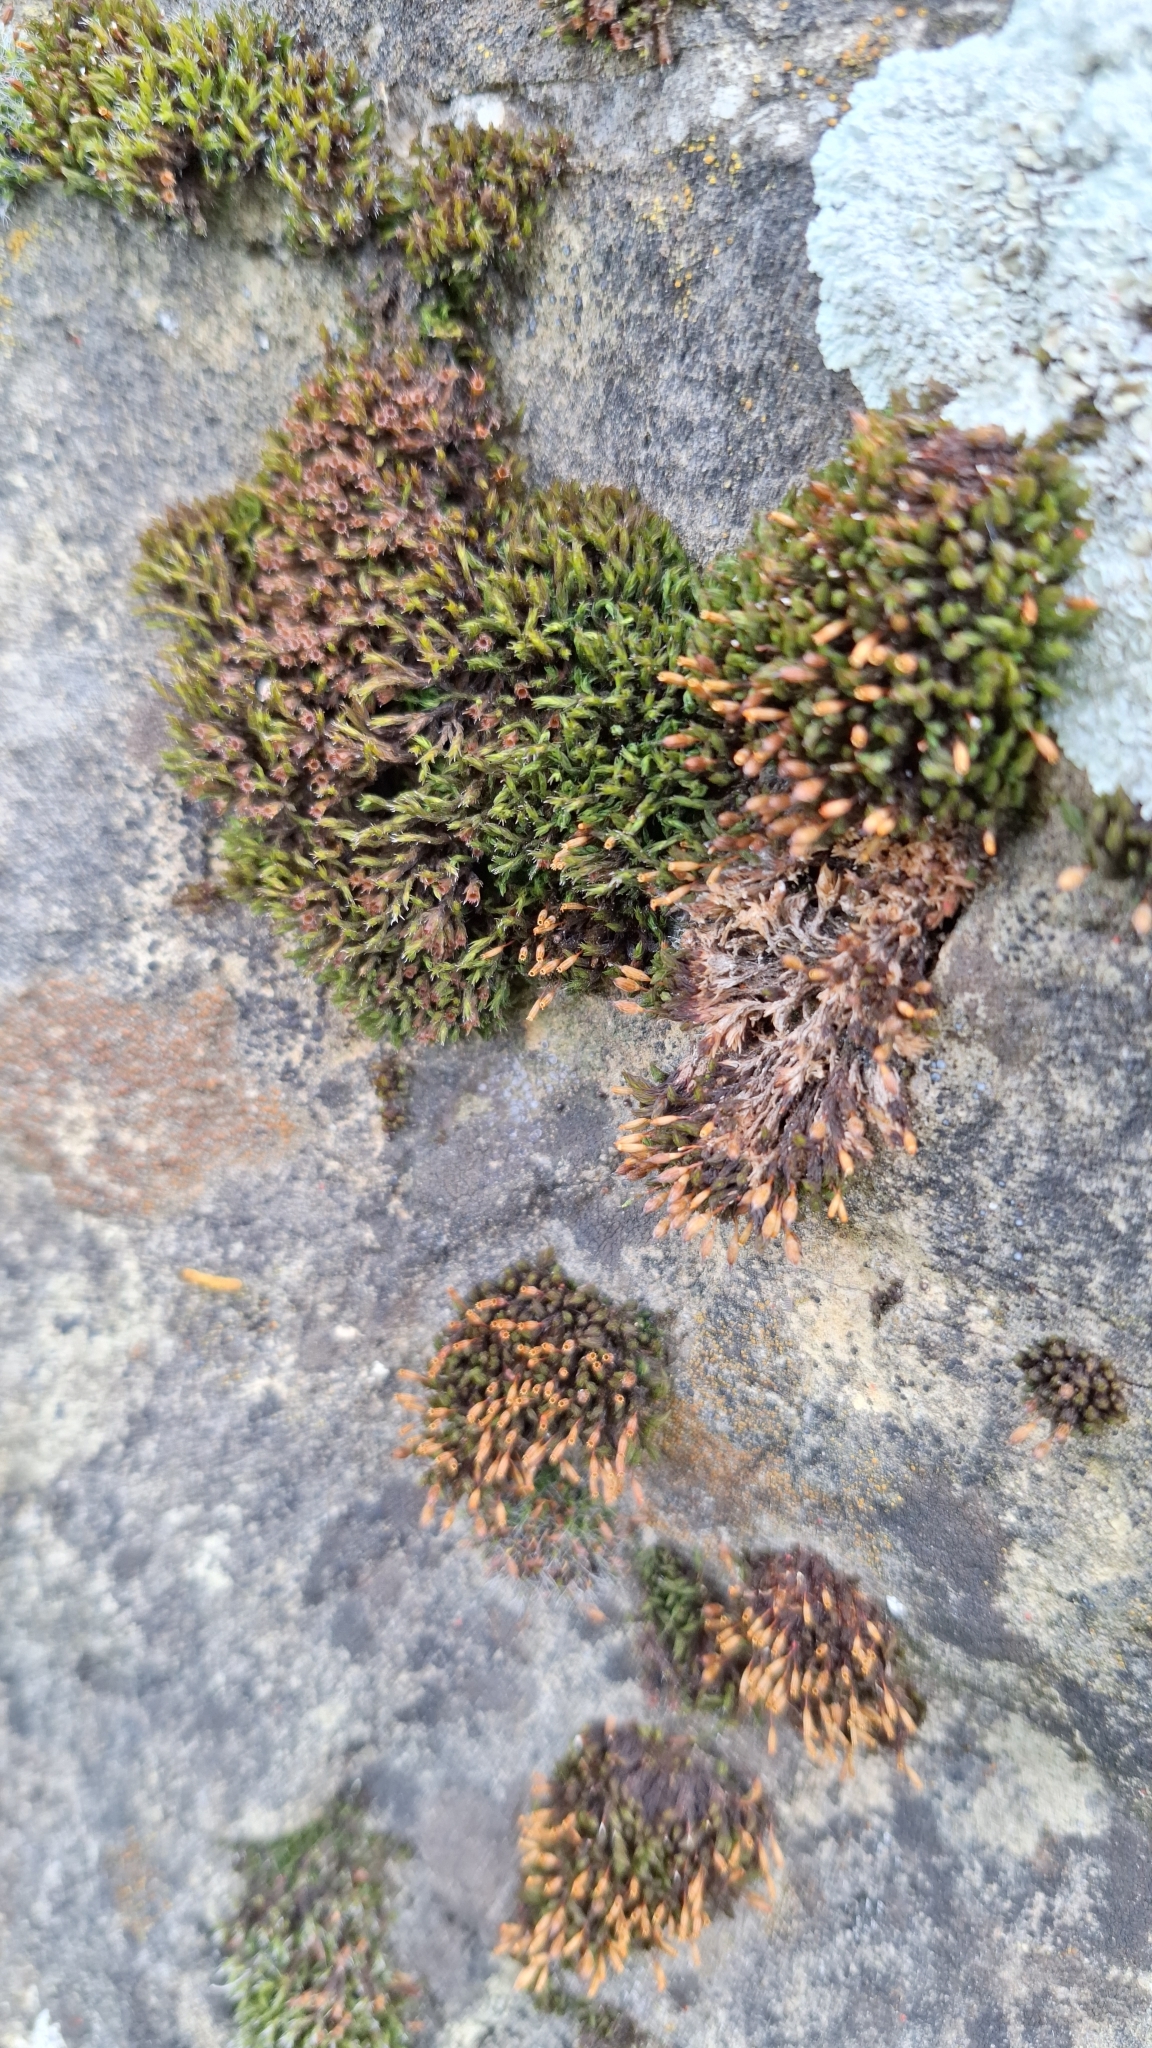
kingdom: Plantae
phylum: Bryophyta
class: Bryopsida
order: Orthotrichales
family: Orthotrichaceae
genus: Orthotrichum
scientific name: Orthotrichum anomalum
